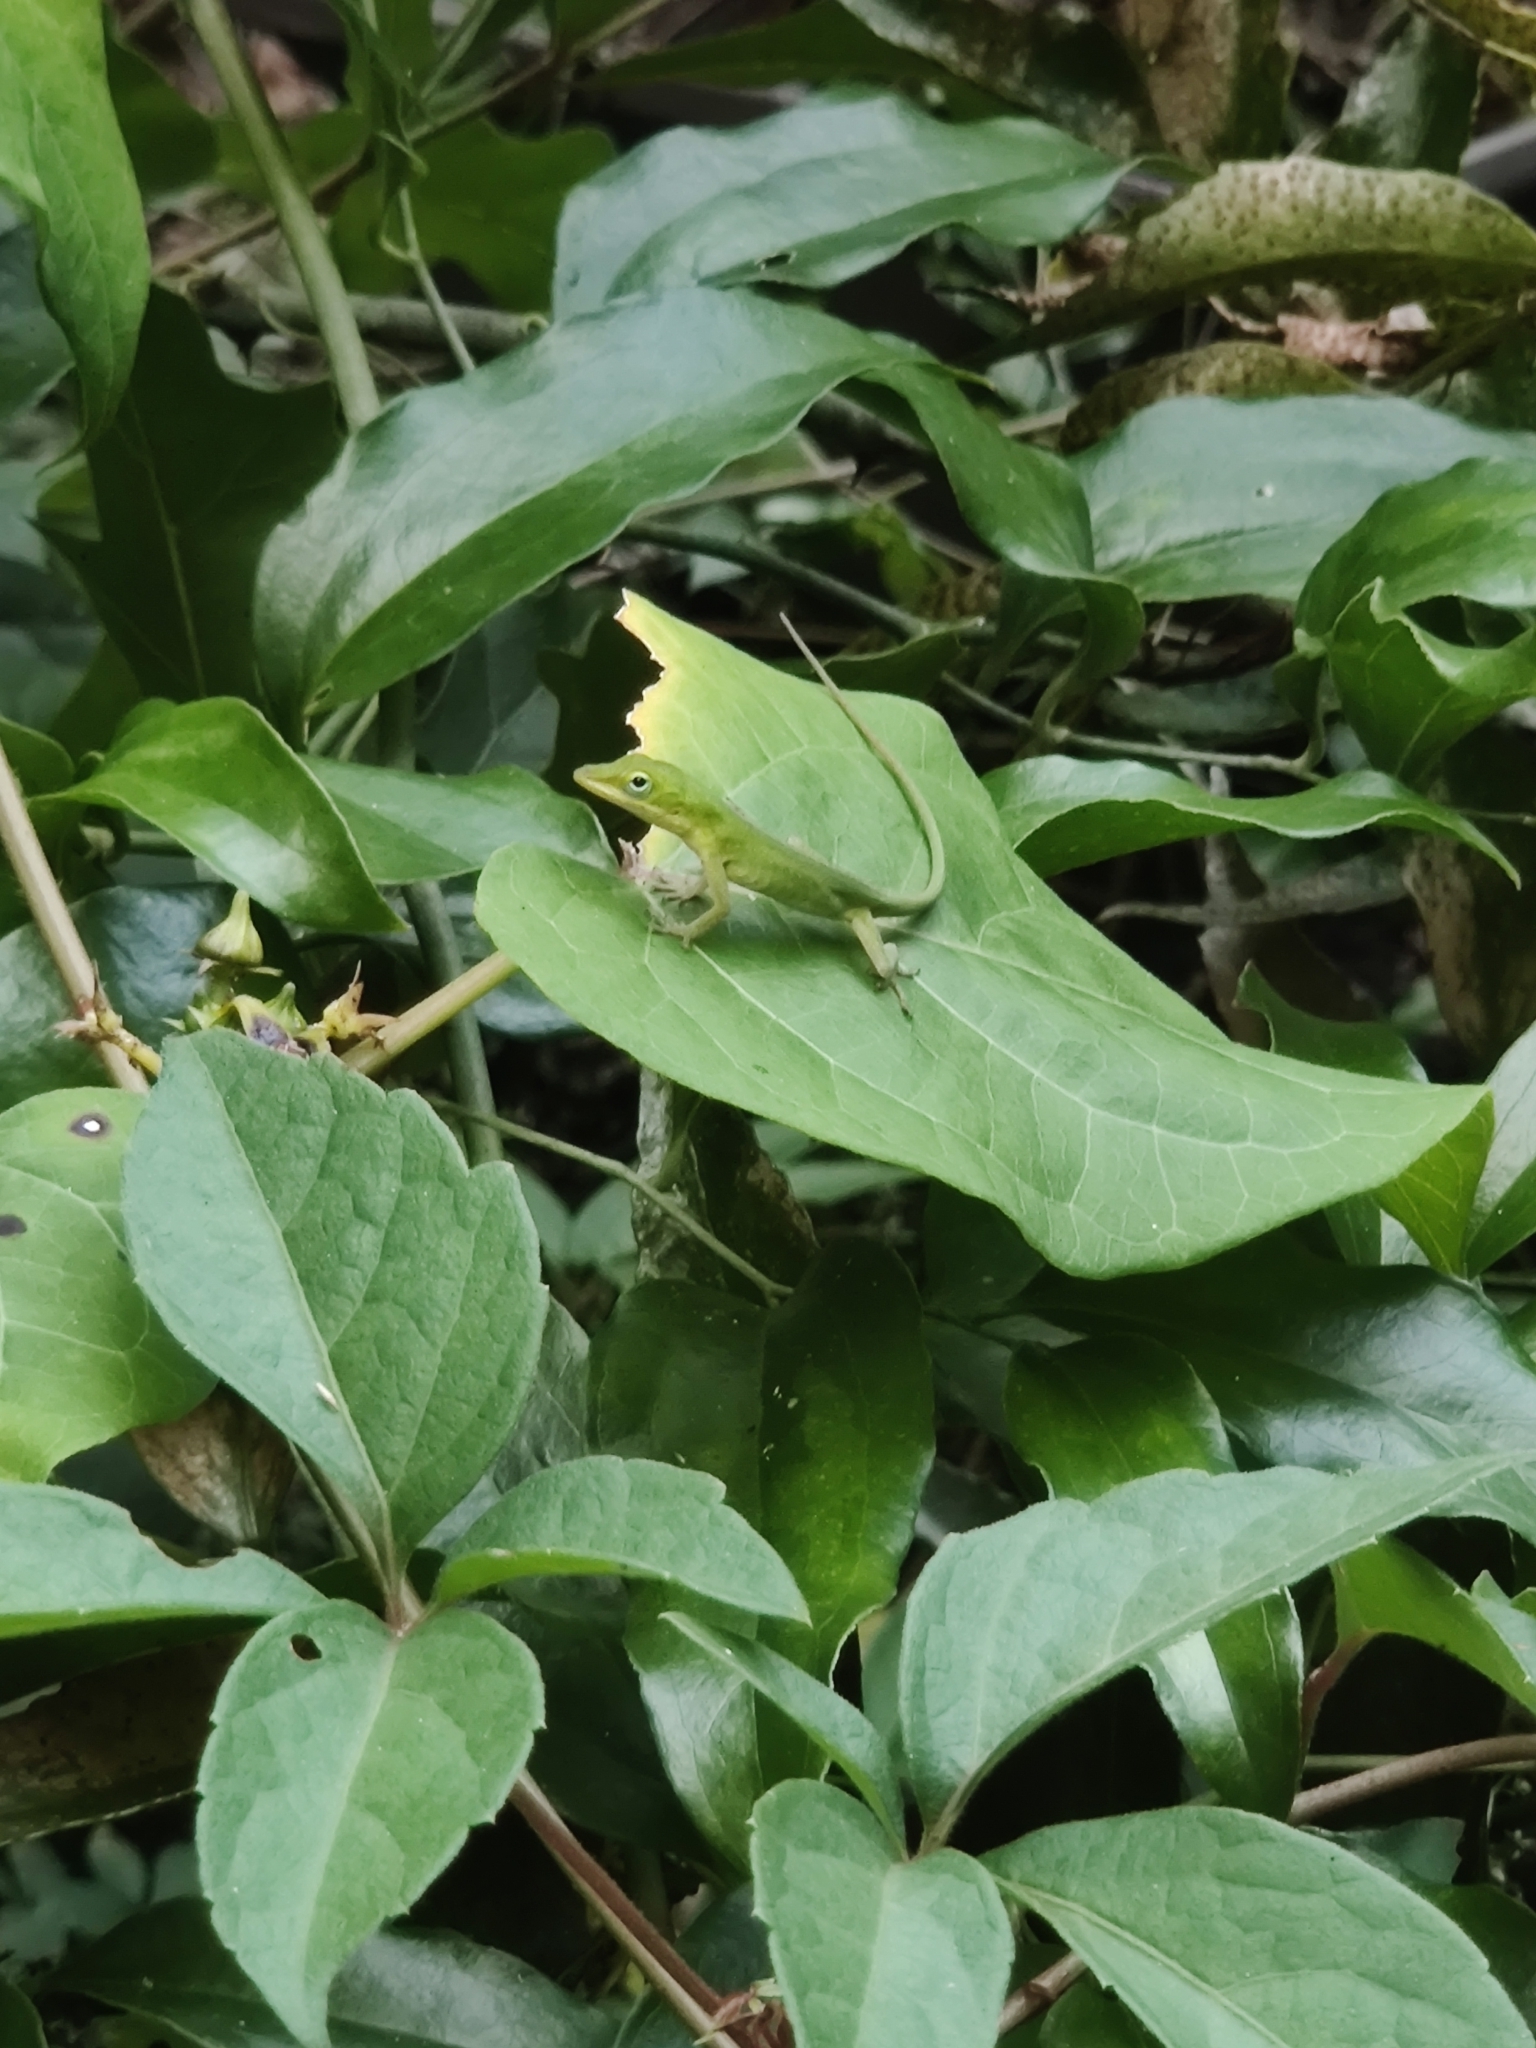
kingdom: Animalia
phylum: Chordata
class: Squamata
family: Dactyloidae
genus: Anolis
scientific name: Anolis carolinensis
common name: Green anole
